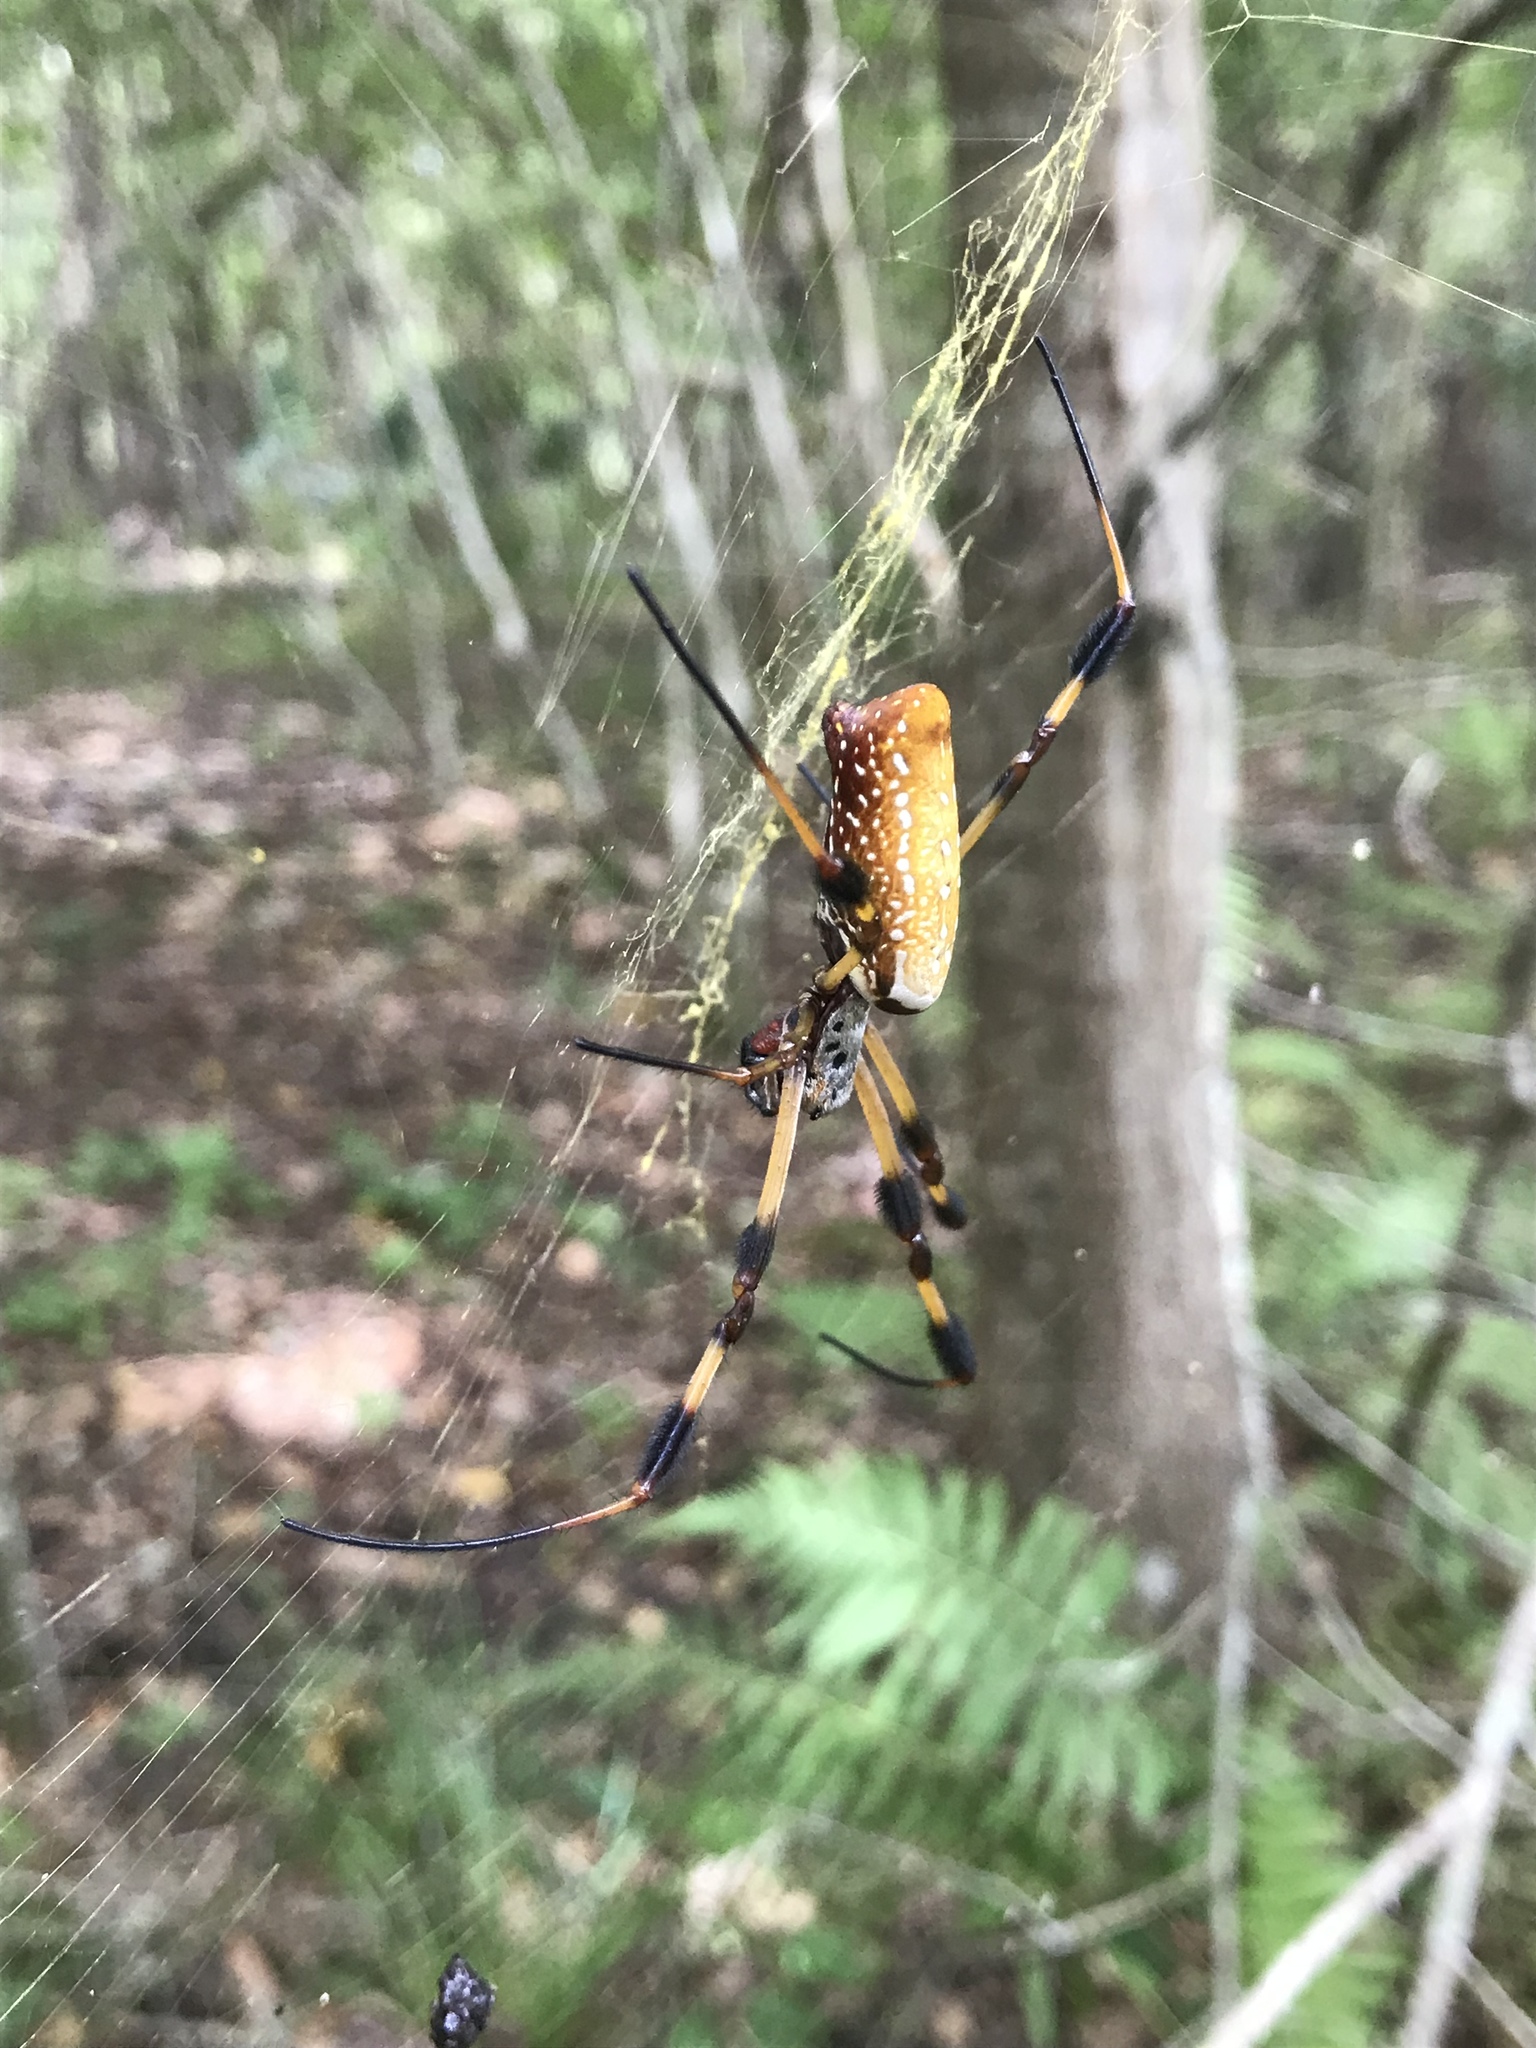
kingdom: Animalia
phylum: Arthropoda
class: Arachnida
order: Araneae
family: Araneidae
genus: Trichonephila
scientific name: Trichonephila clavipes
